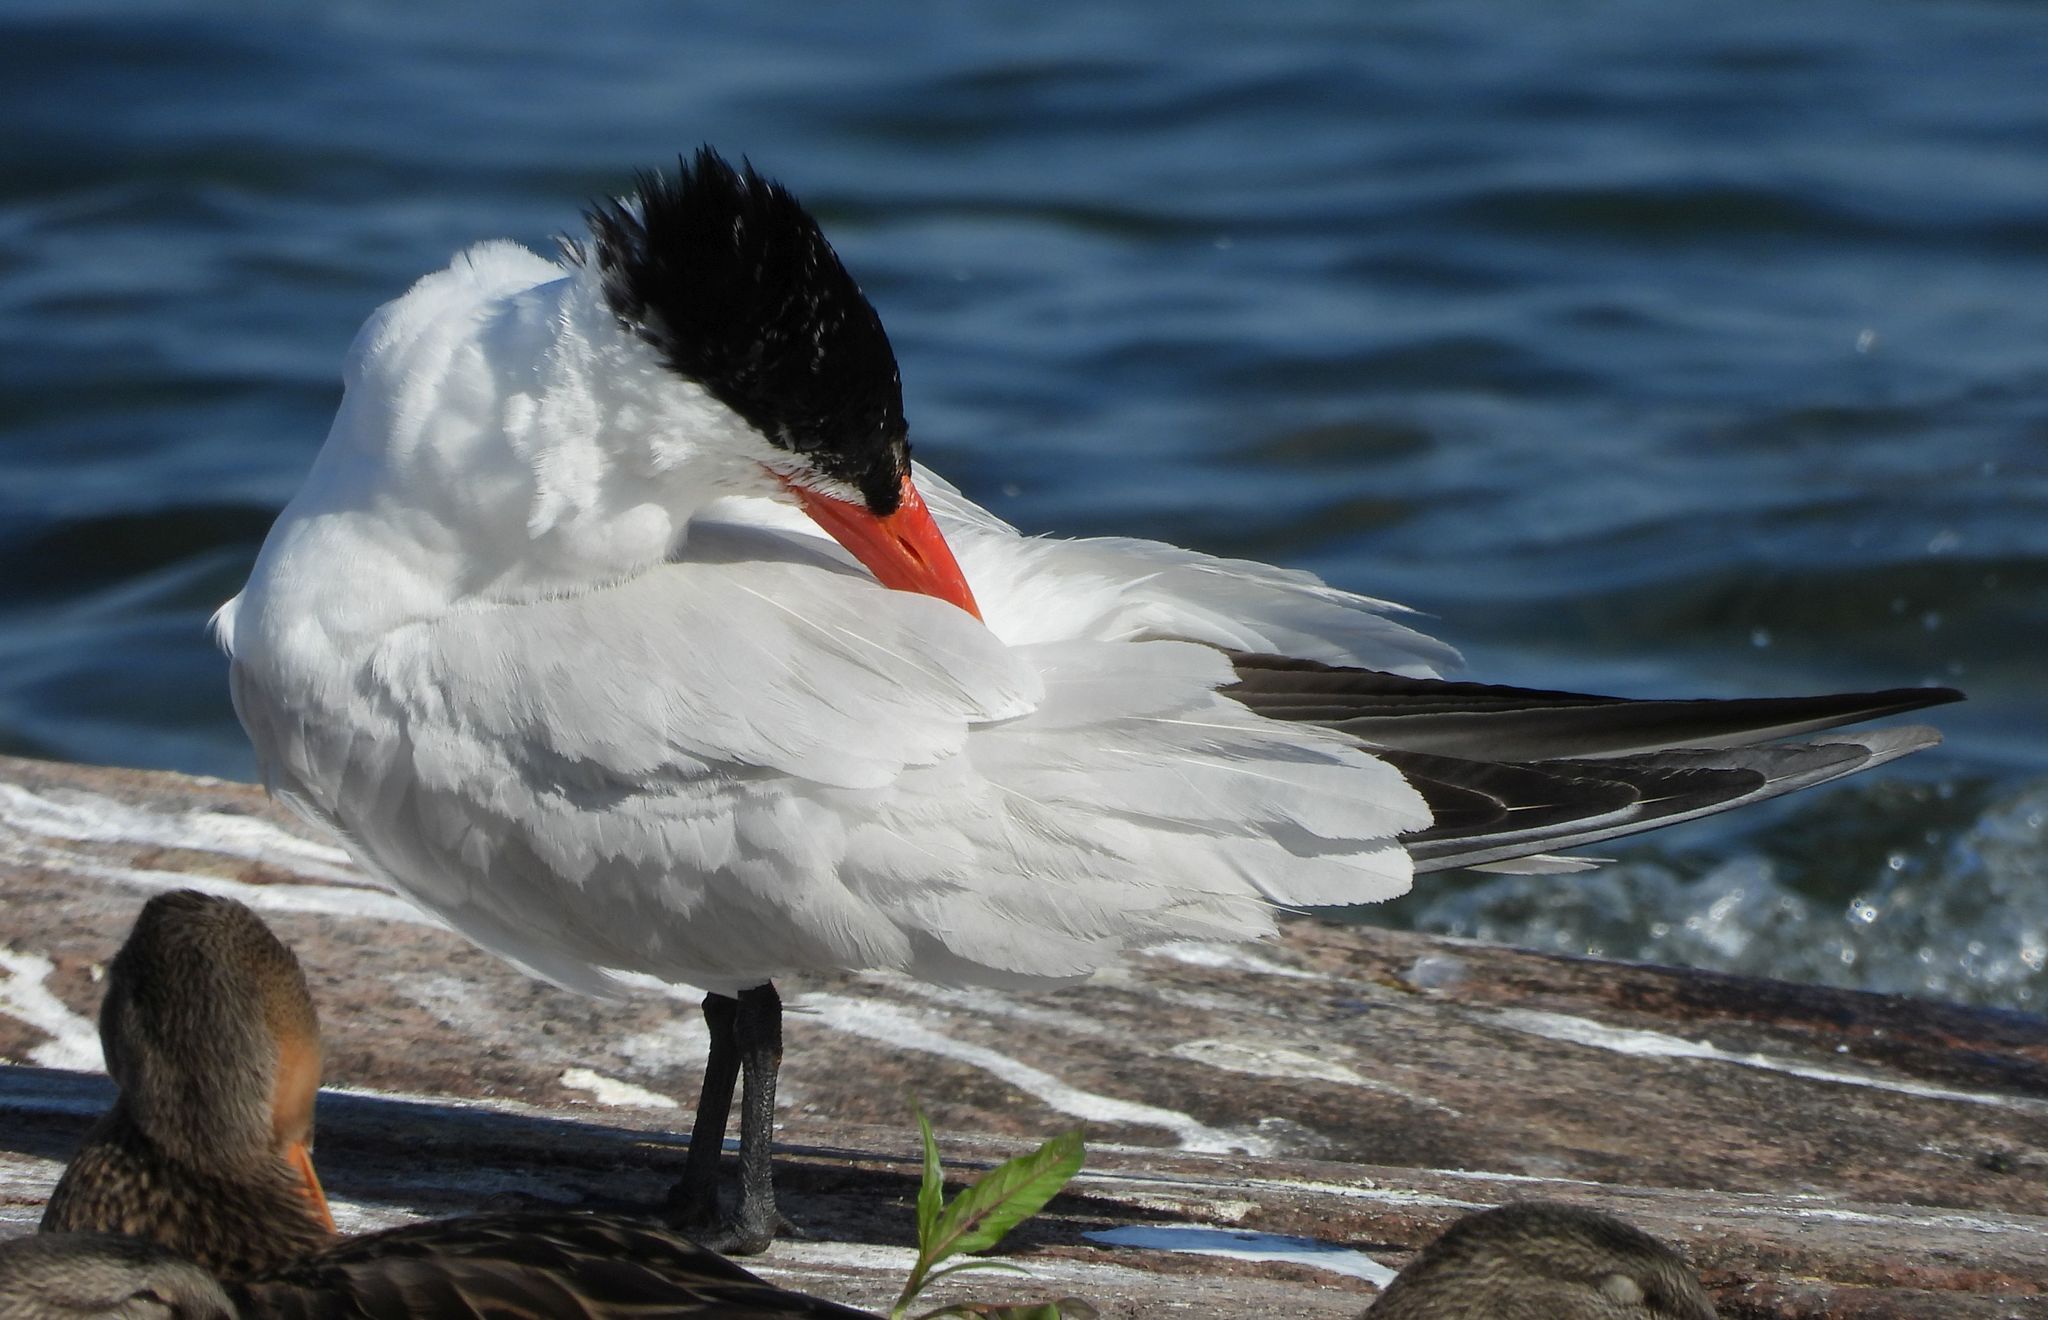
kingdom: Animalia
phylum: Chordata
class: Aves
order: Charadriiformes
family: Laridae
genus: Hydroprogne
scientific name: Hydroprogne caspia
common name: Caspian tern
